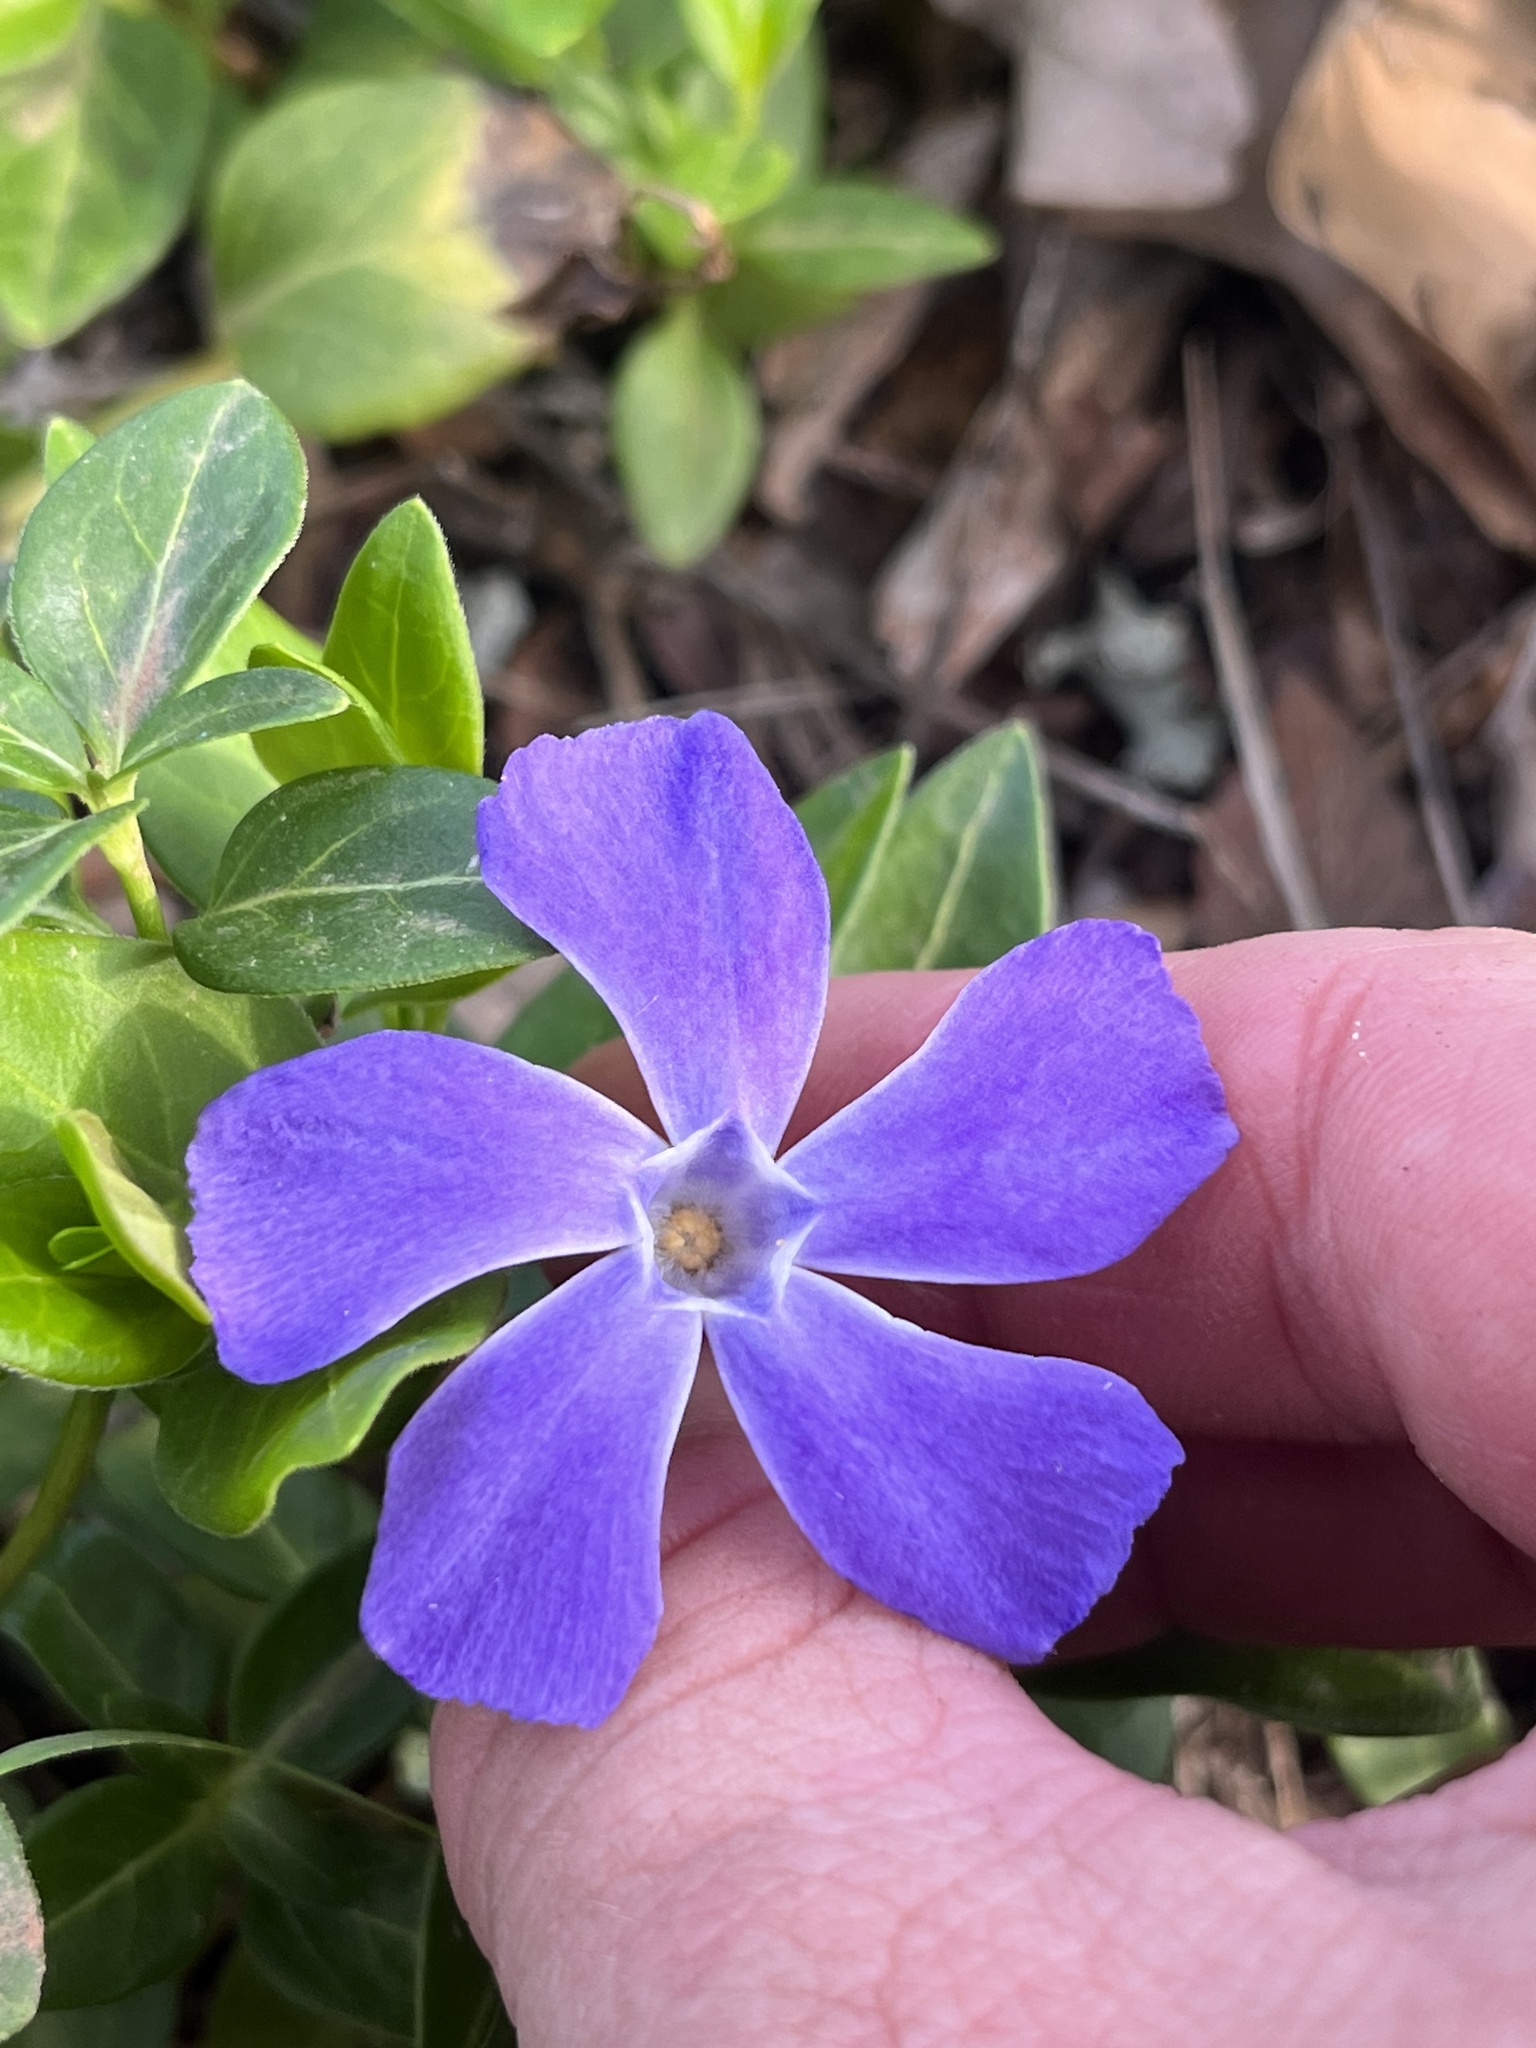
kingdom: Plantae
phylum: Tracheophyta
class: Magnoliopsida
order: Gentianales
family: Apocynaceae
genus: Vinca
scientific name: Vinca major
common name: Greater periwinkle
